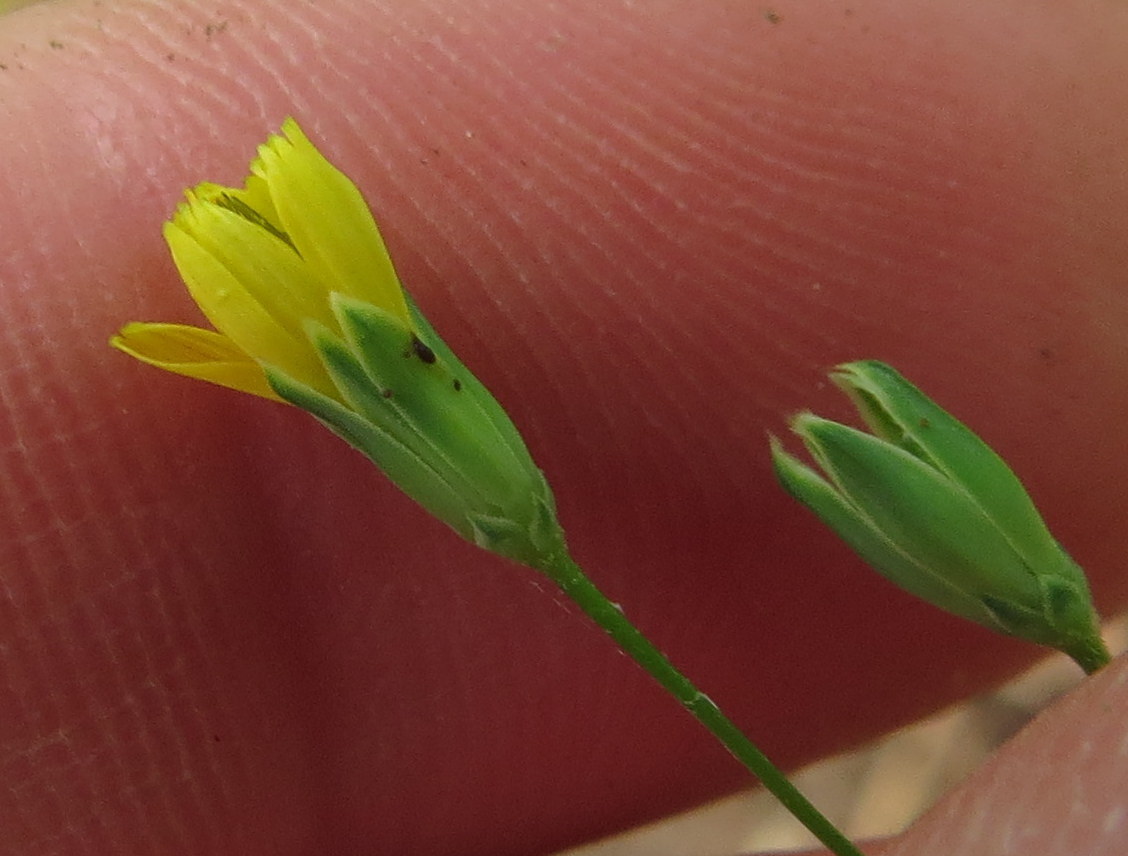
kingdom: Plantae
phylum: Tracheophyta
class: Magnoliopsida
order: Asterales
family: Asteraceae
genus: Lapsana
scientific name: Lapsana communis
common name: Nipplewort
